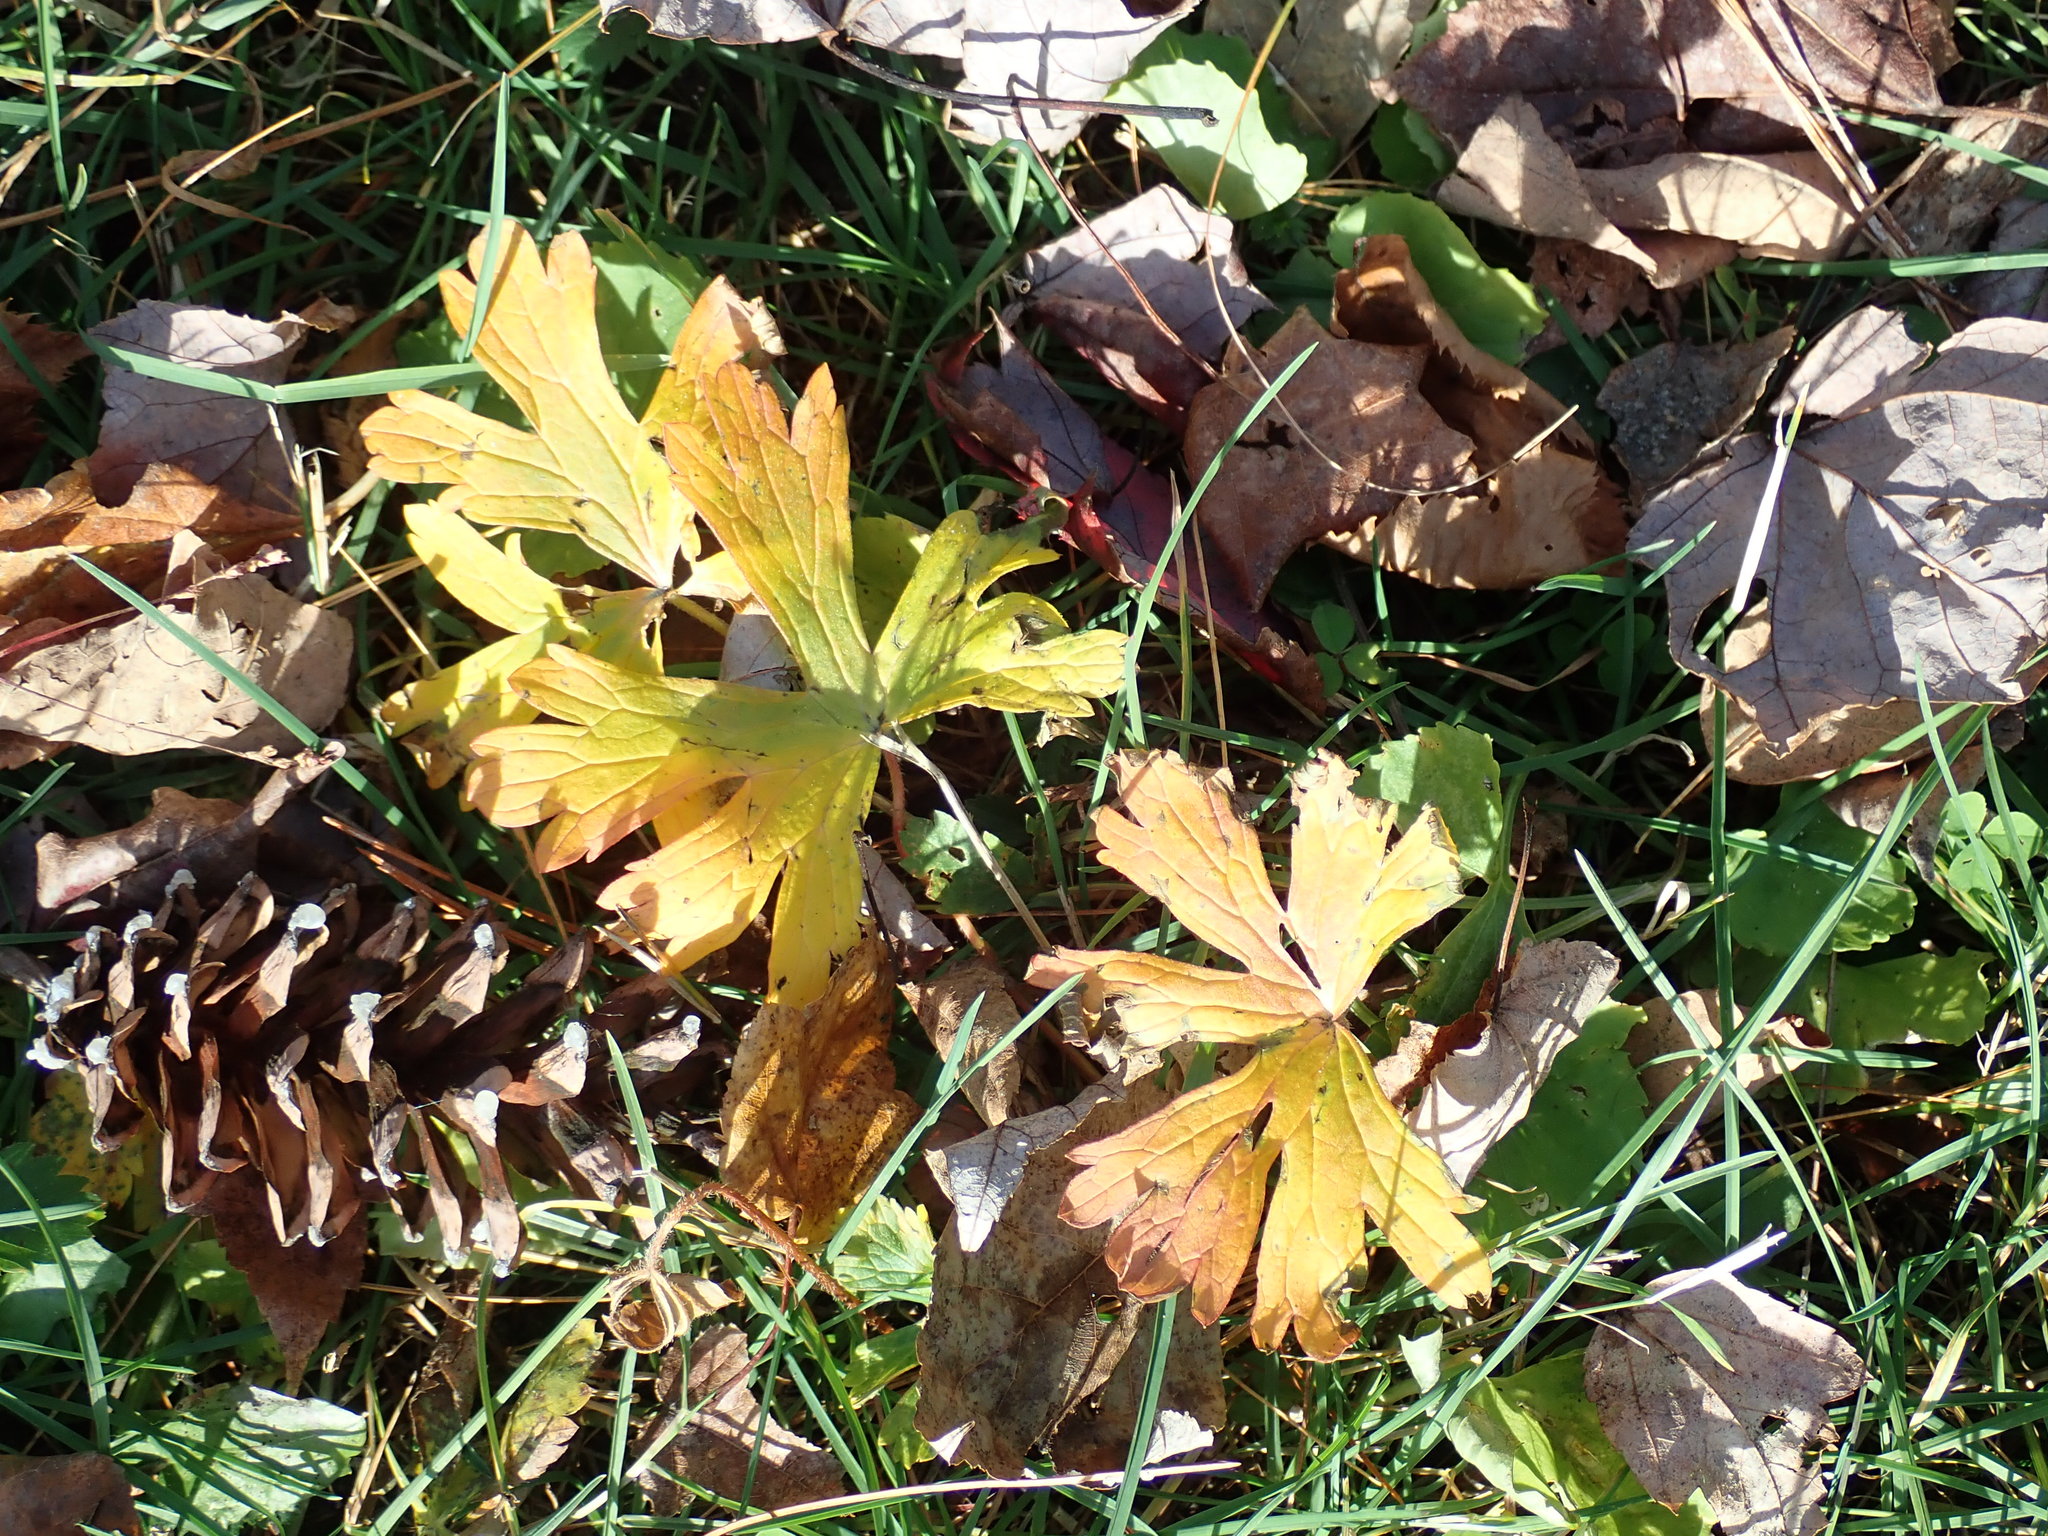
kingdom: Plantae
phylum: Tracheophyta
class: Magnoliopsida
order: Geraniales
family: Geraniaceae
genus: Geranium
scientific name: Geranium maculatum
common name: Spotted geranium
